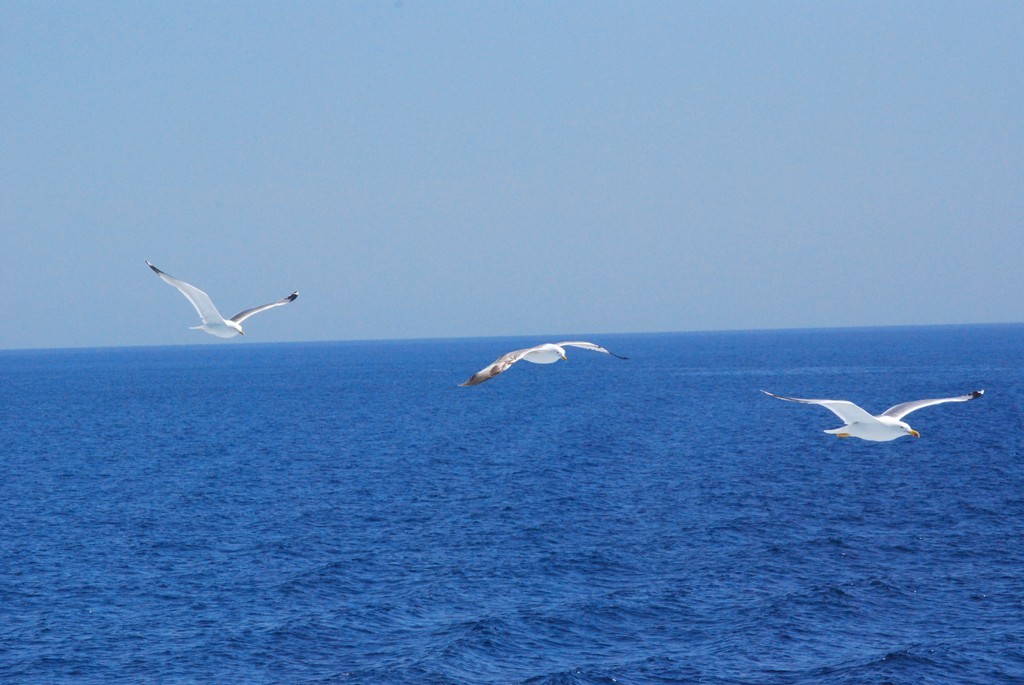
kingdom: Animalia
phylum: Chordata
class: Aves
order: Charadriiformes
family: Laridae
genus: Larus
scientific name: Larus michahellis
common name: Yellow-legged gull
